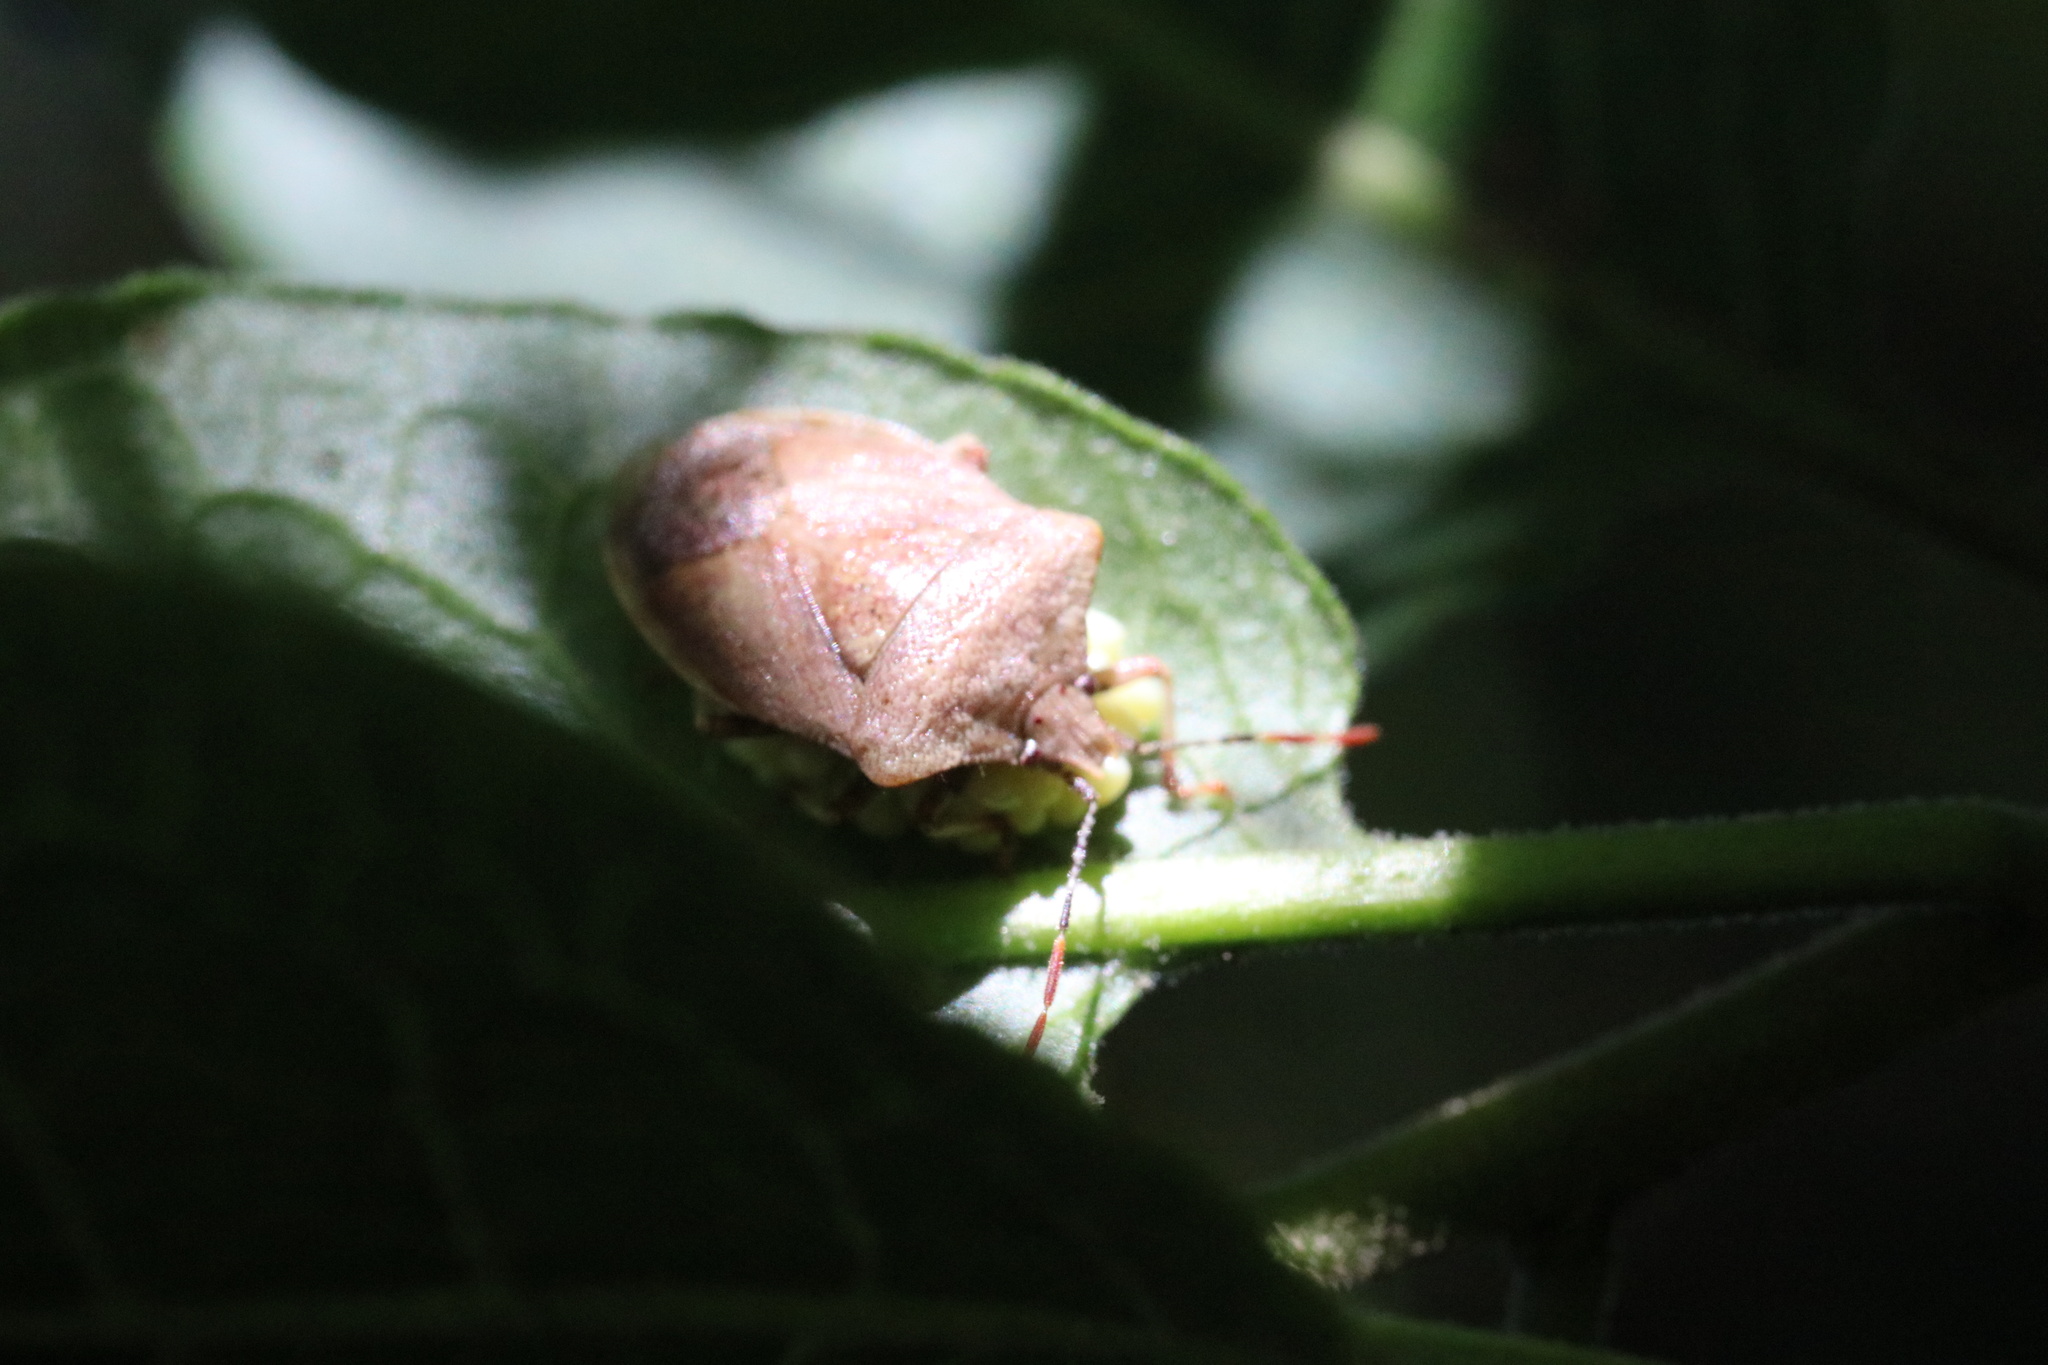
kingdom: Animalia
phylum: Arthropoda
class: Insecta
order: Hemiptera
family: Acanthosomatidae
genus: Phorbanta
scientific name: Phorbanta variabilis
